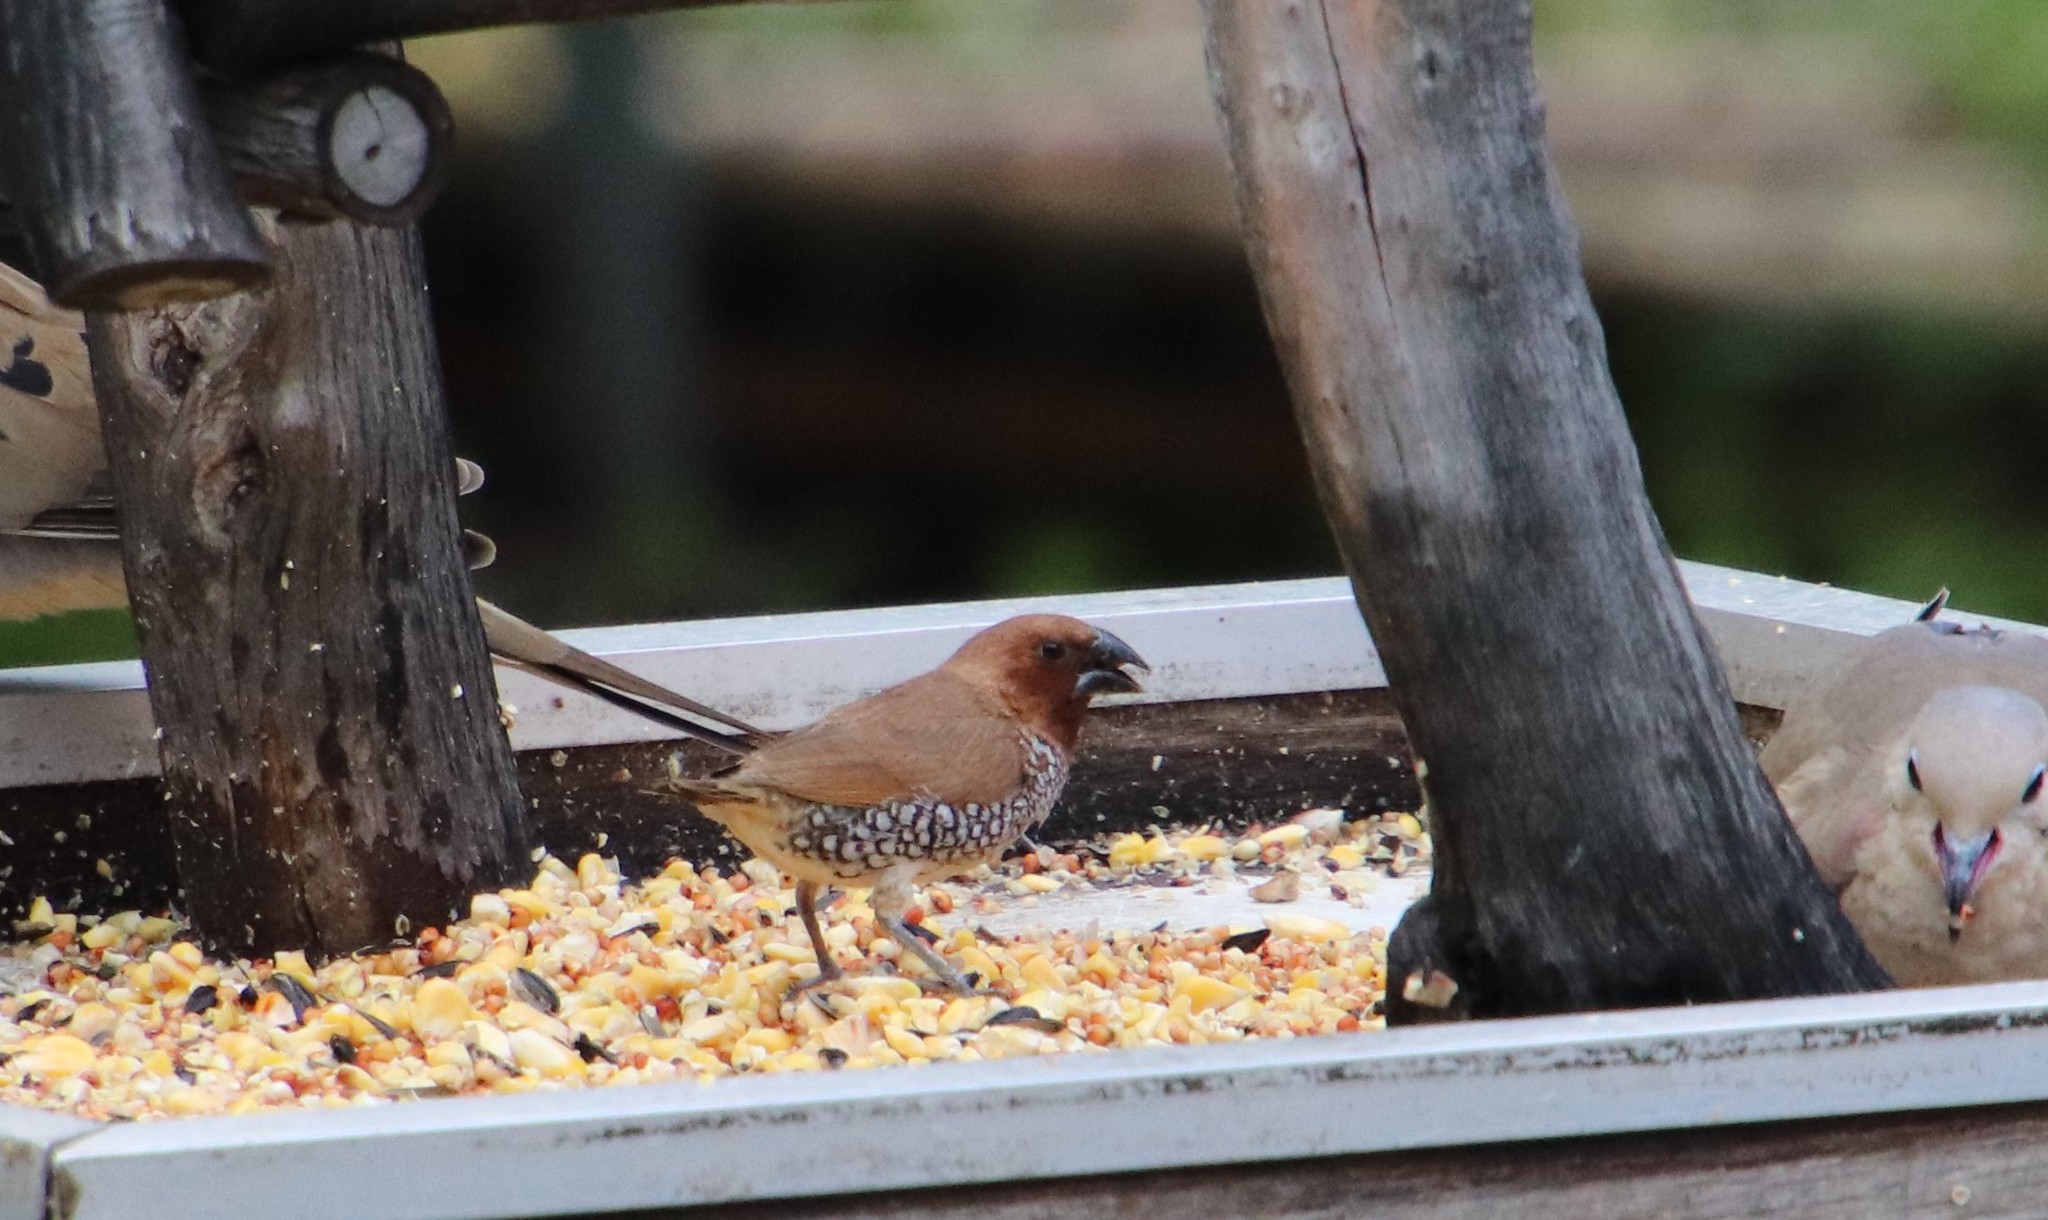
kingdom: Animalia
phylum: Chordata
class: Aves
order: Passeriformes
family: Estrildidae
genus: Lonchura
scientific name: Lonchura punctulata
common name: Scaly-breasted munia
